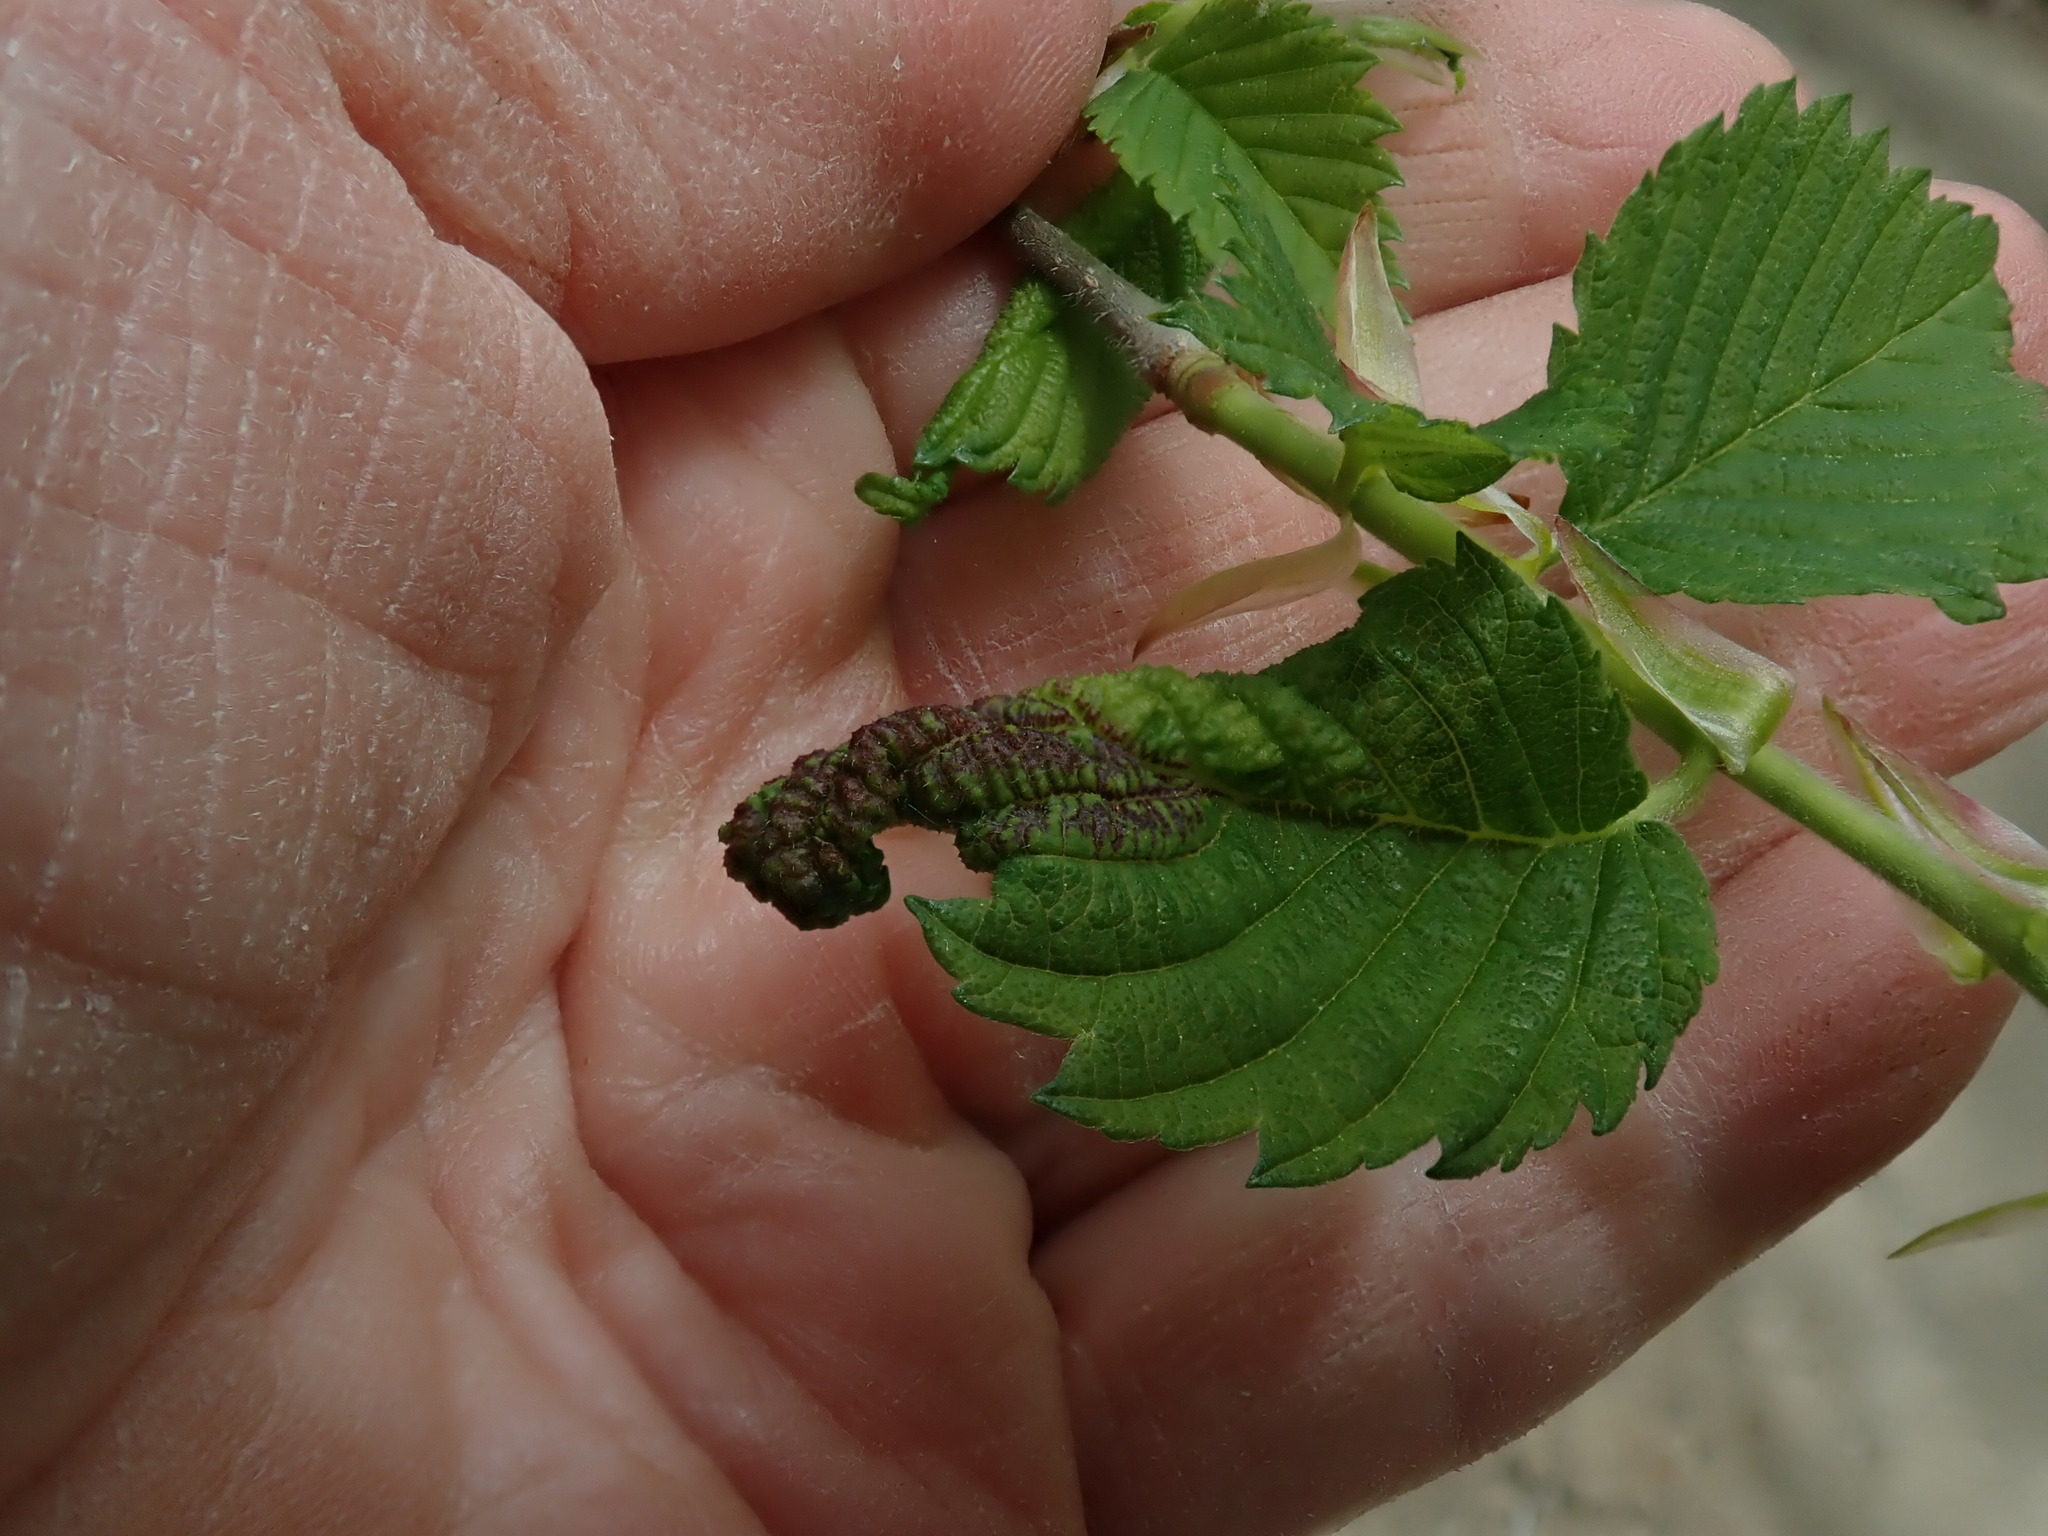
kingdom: Animalia
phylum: Arthropoda
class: Insecta
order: Hemiptera
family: Aphididae
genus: Eriosoma
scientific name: Eriosoma americanum
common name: Woolly elm aphid
